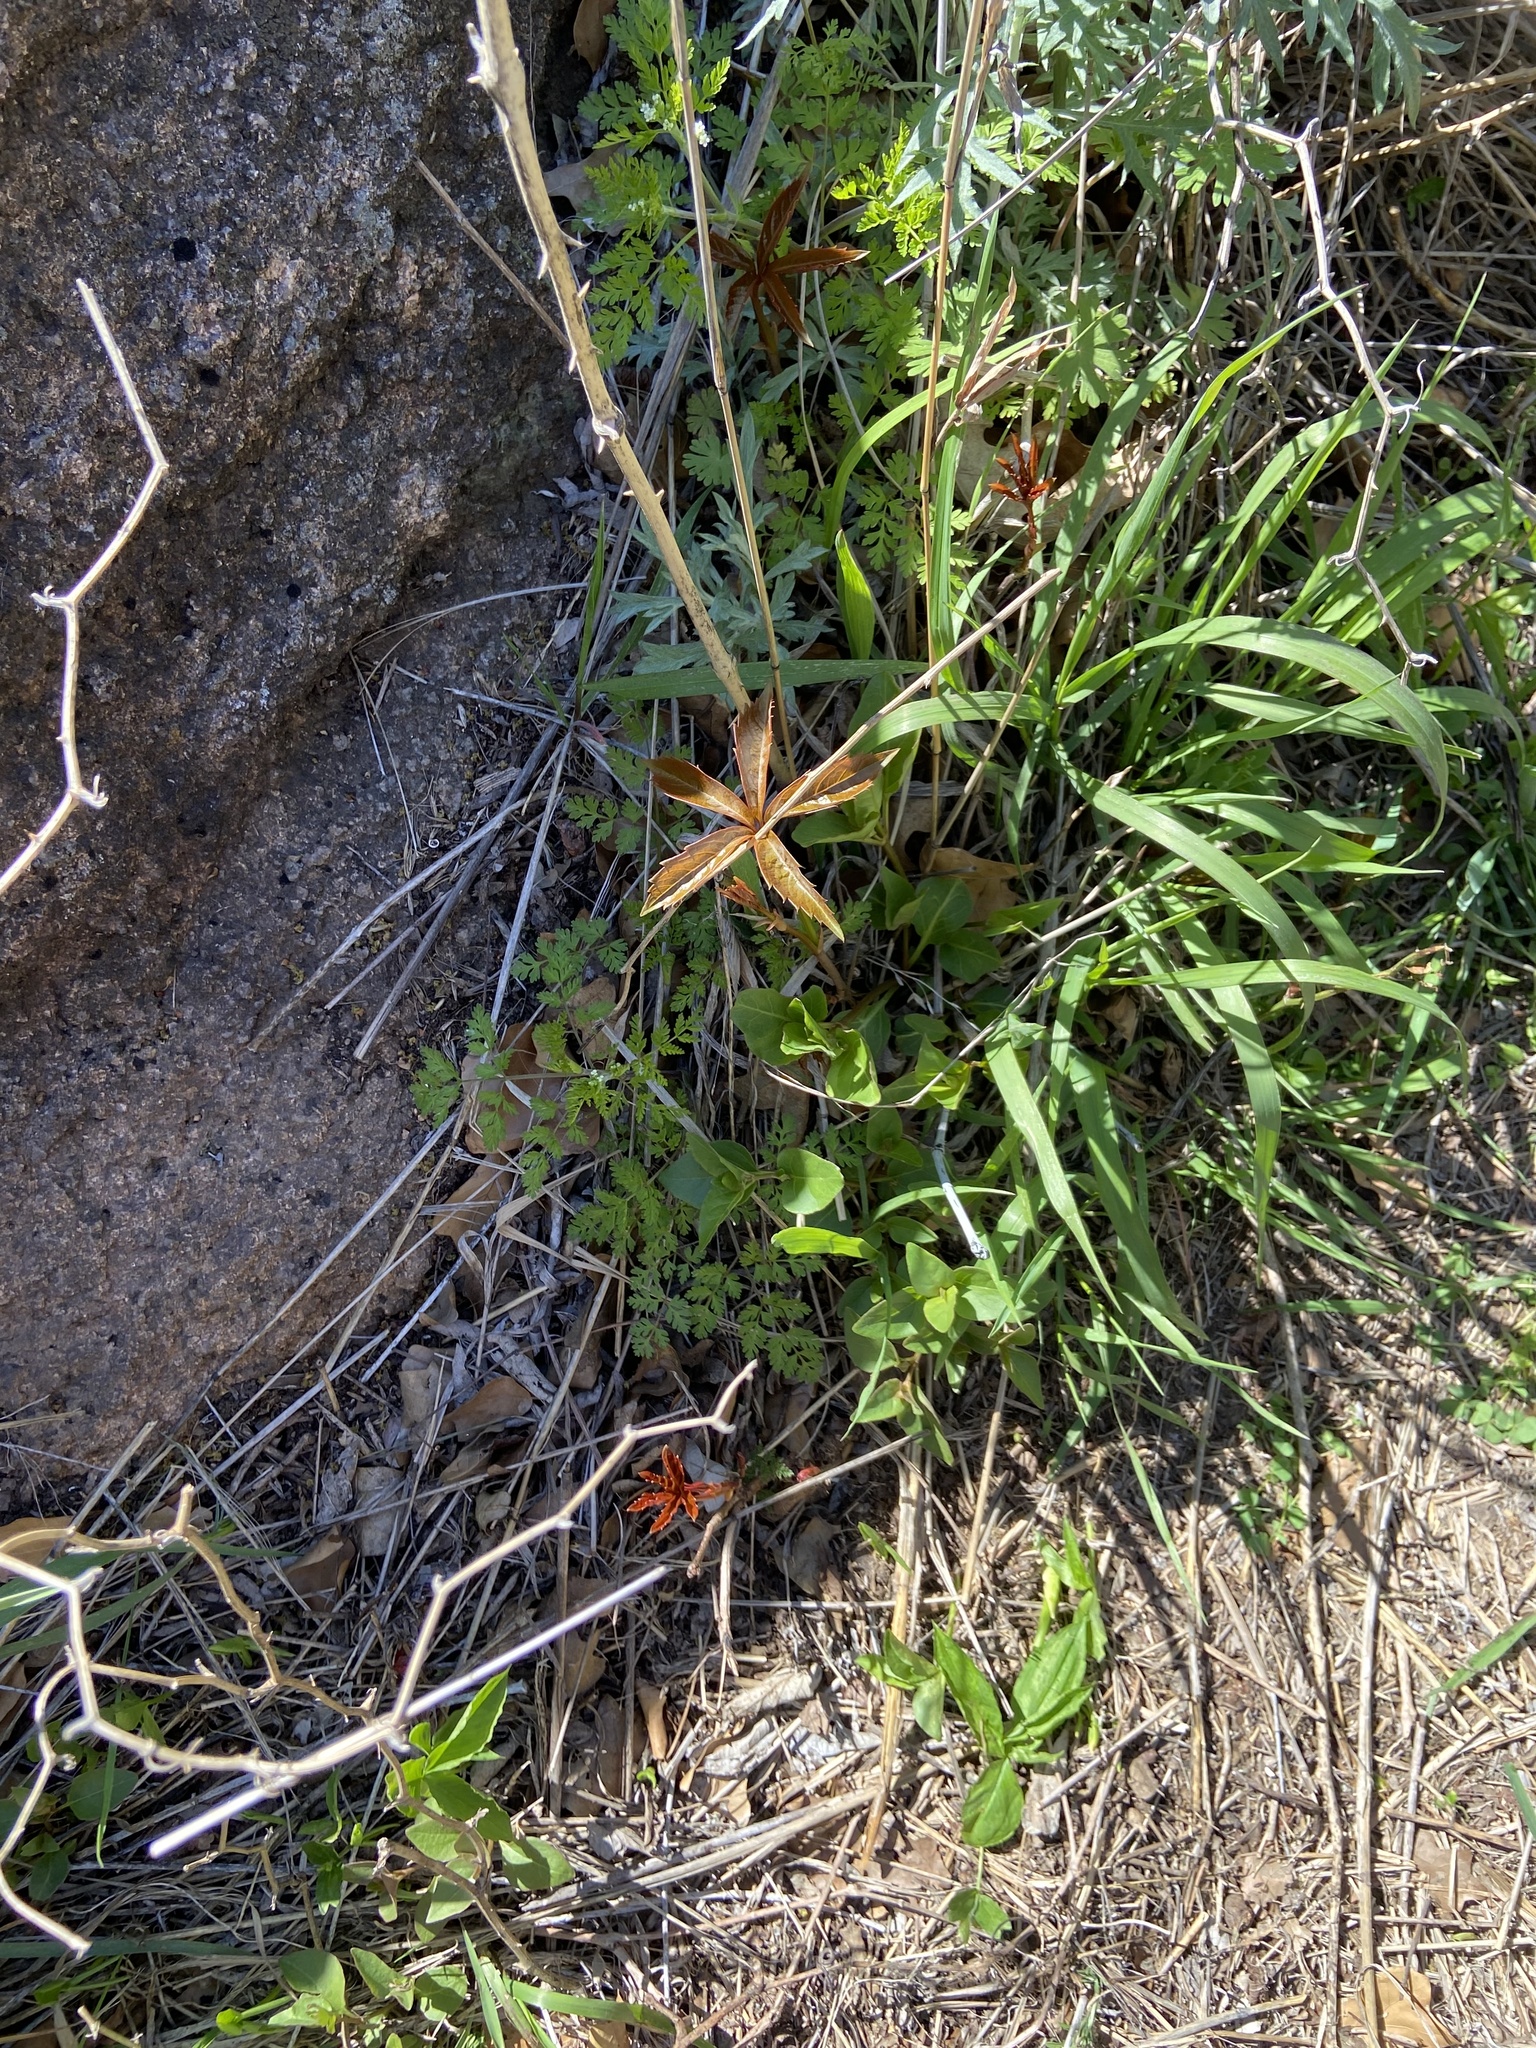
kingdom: Plantae
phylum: Tracheophyta
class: Magnoliopsida
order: Vitales
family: Vitaceae
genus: Parthenocissus
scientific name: Parthenocissus quinquefolia
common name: Virginia-creeper
